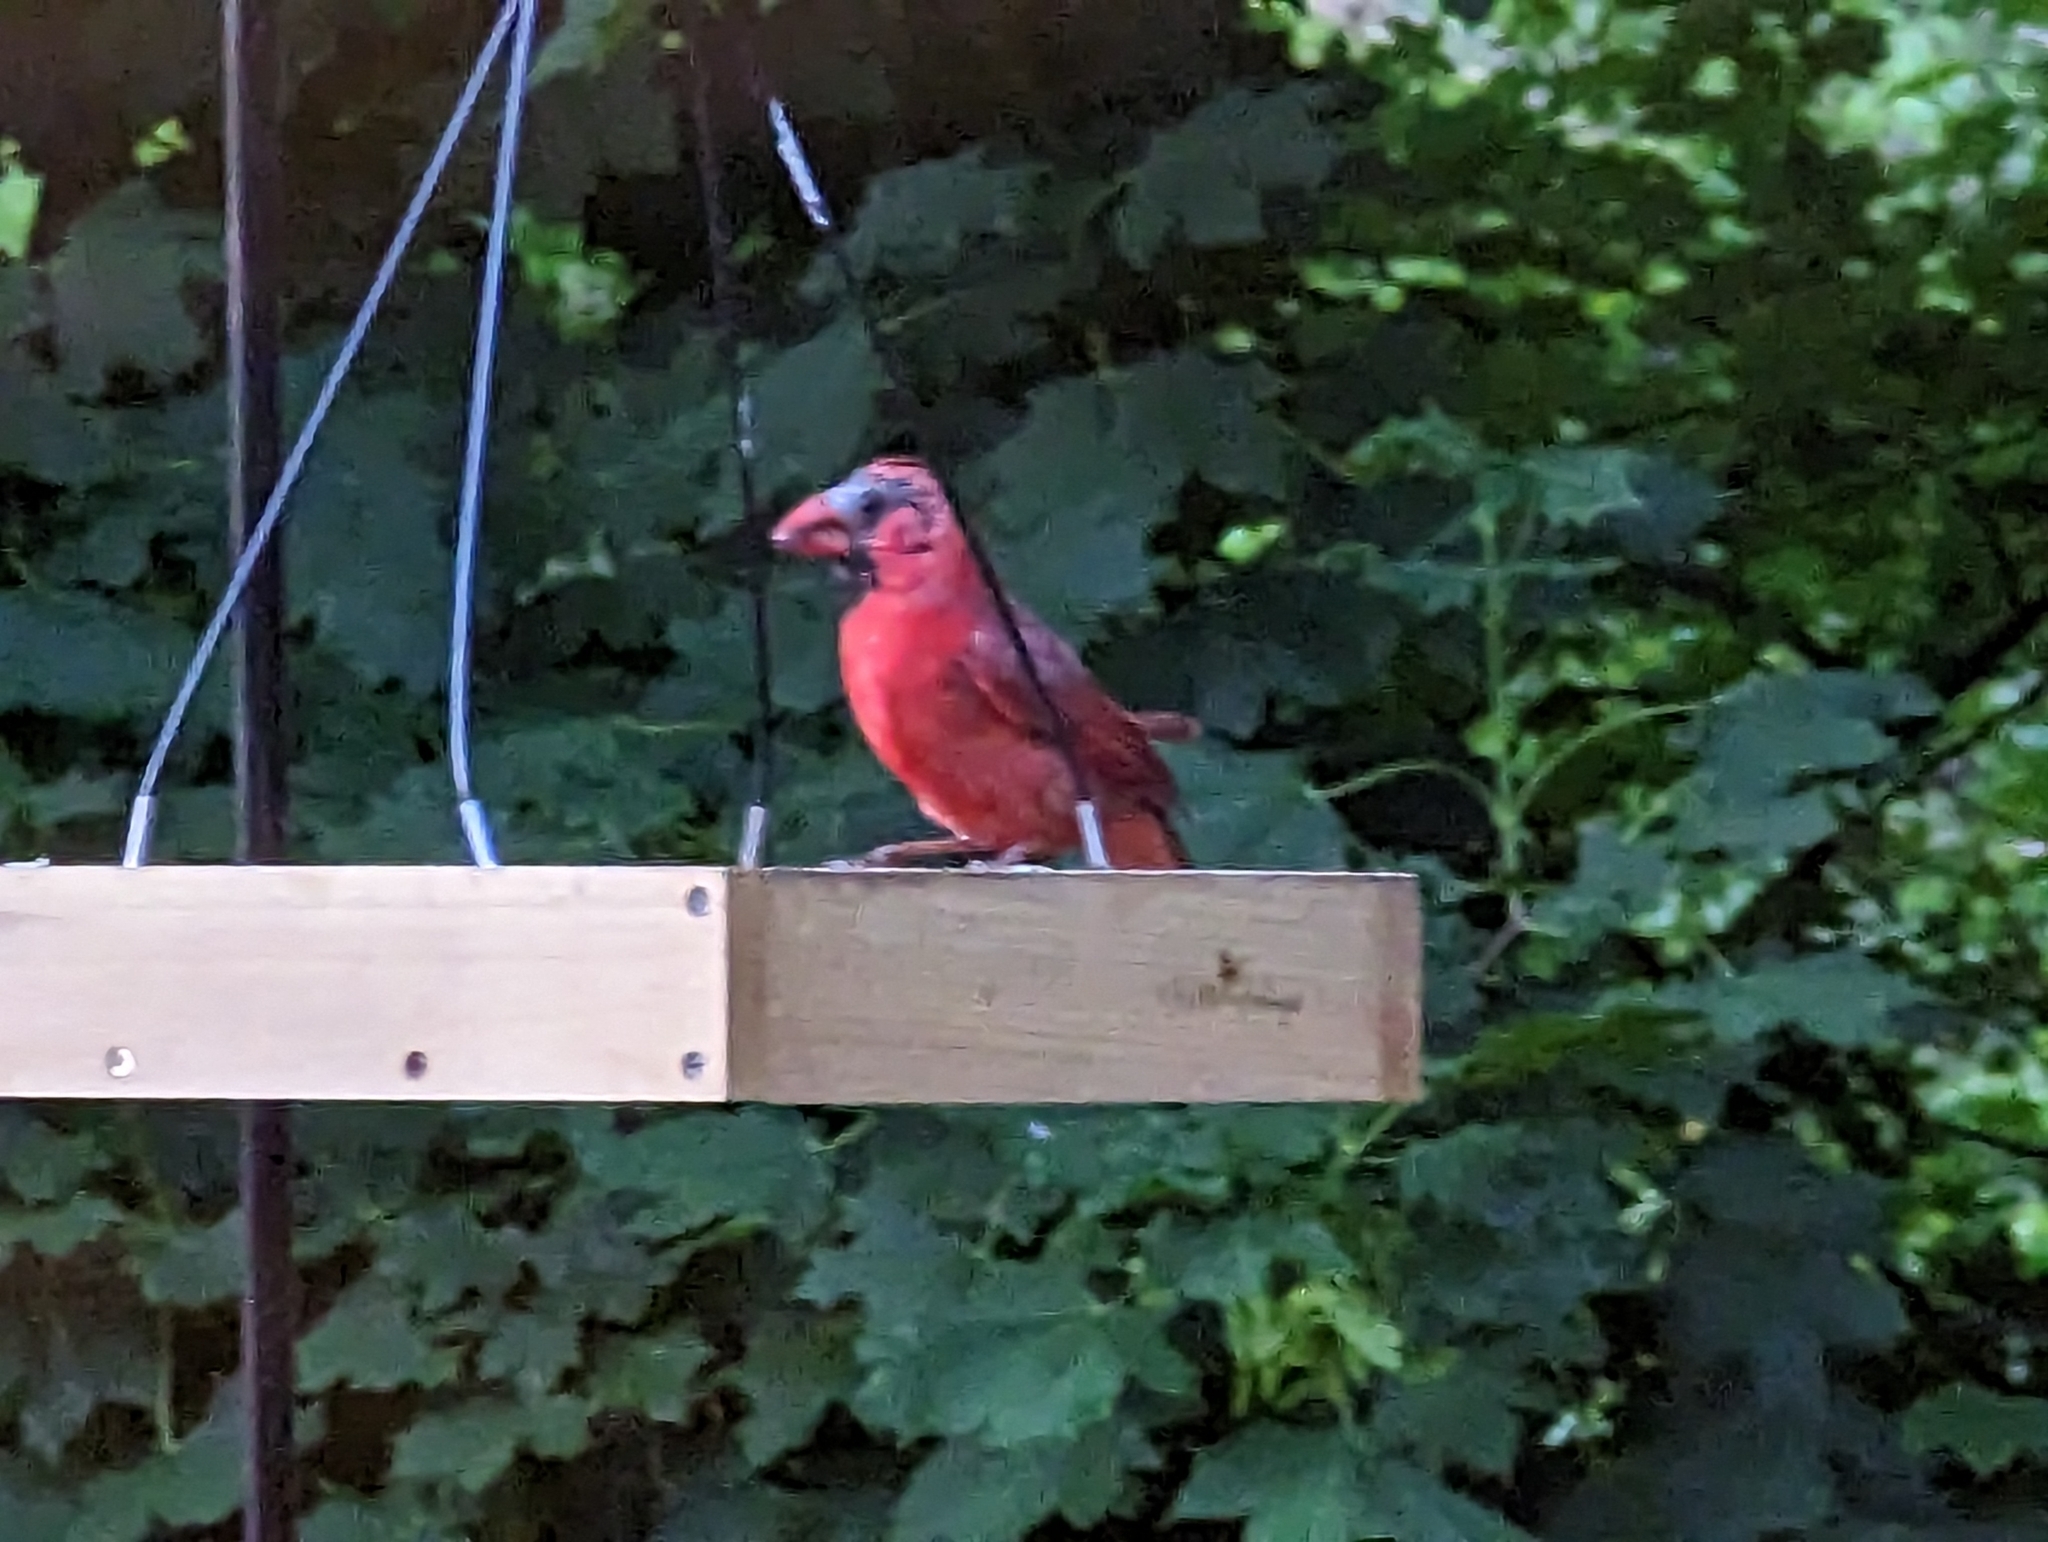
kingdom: Animalia
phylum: Chordata
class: Aves
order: Passeriformes
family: Cardinalidae
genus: Cardinalis
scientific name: Cardinalis cardinalis
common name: Northern cardinal
